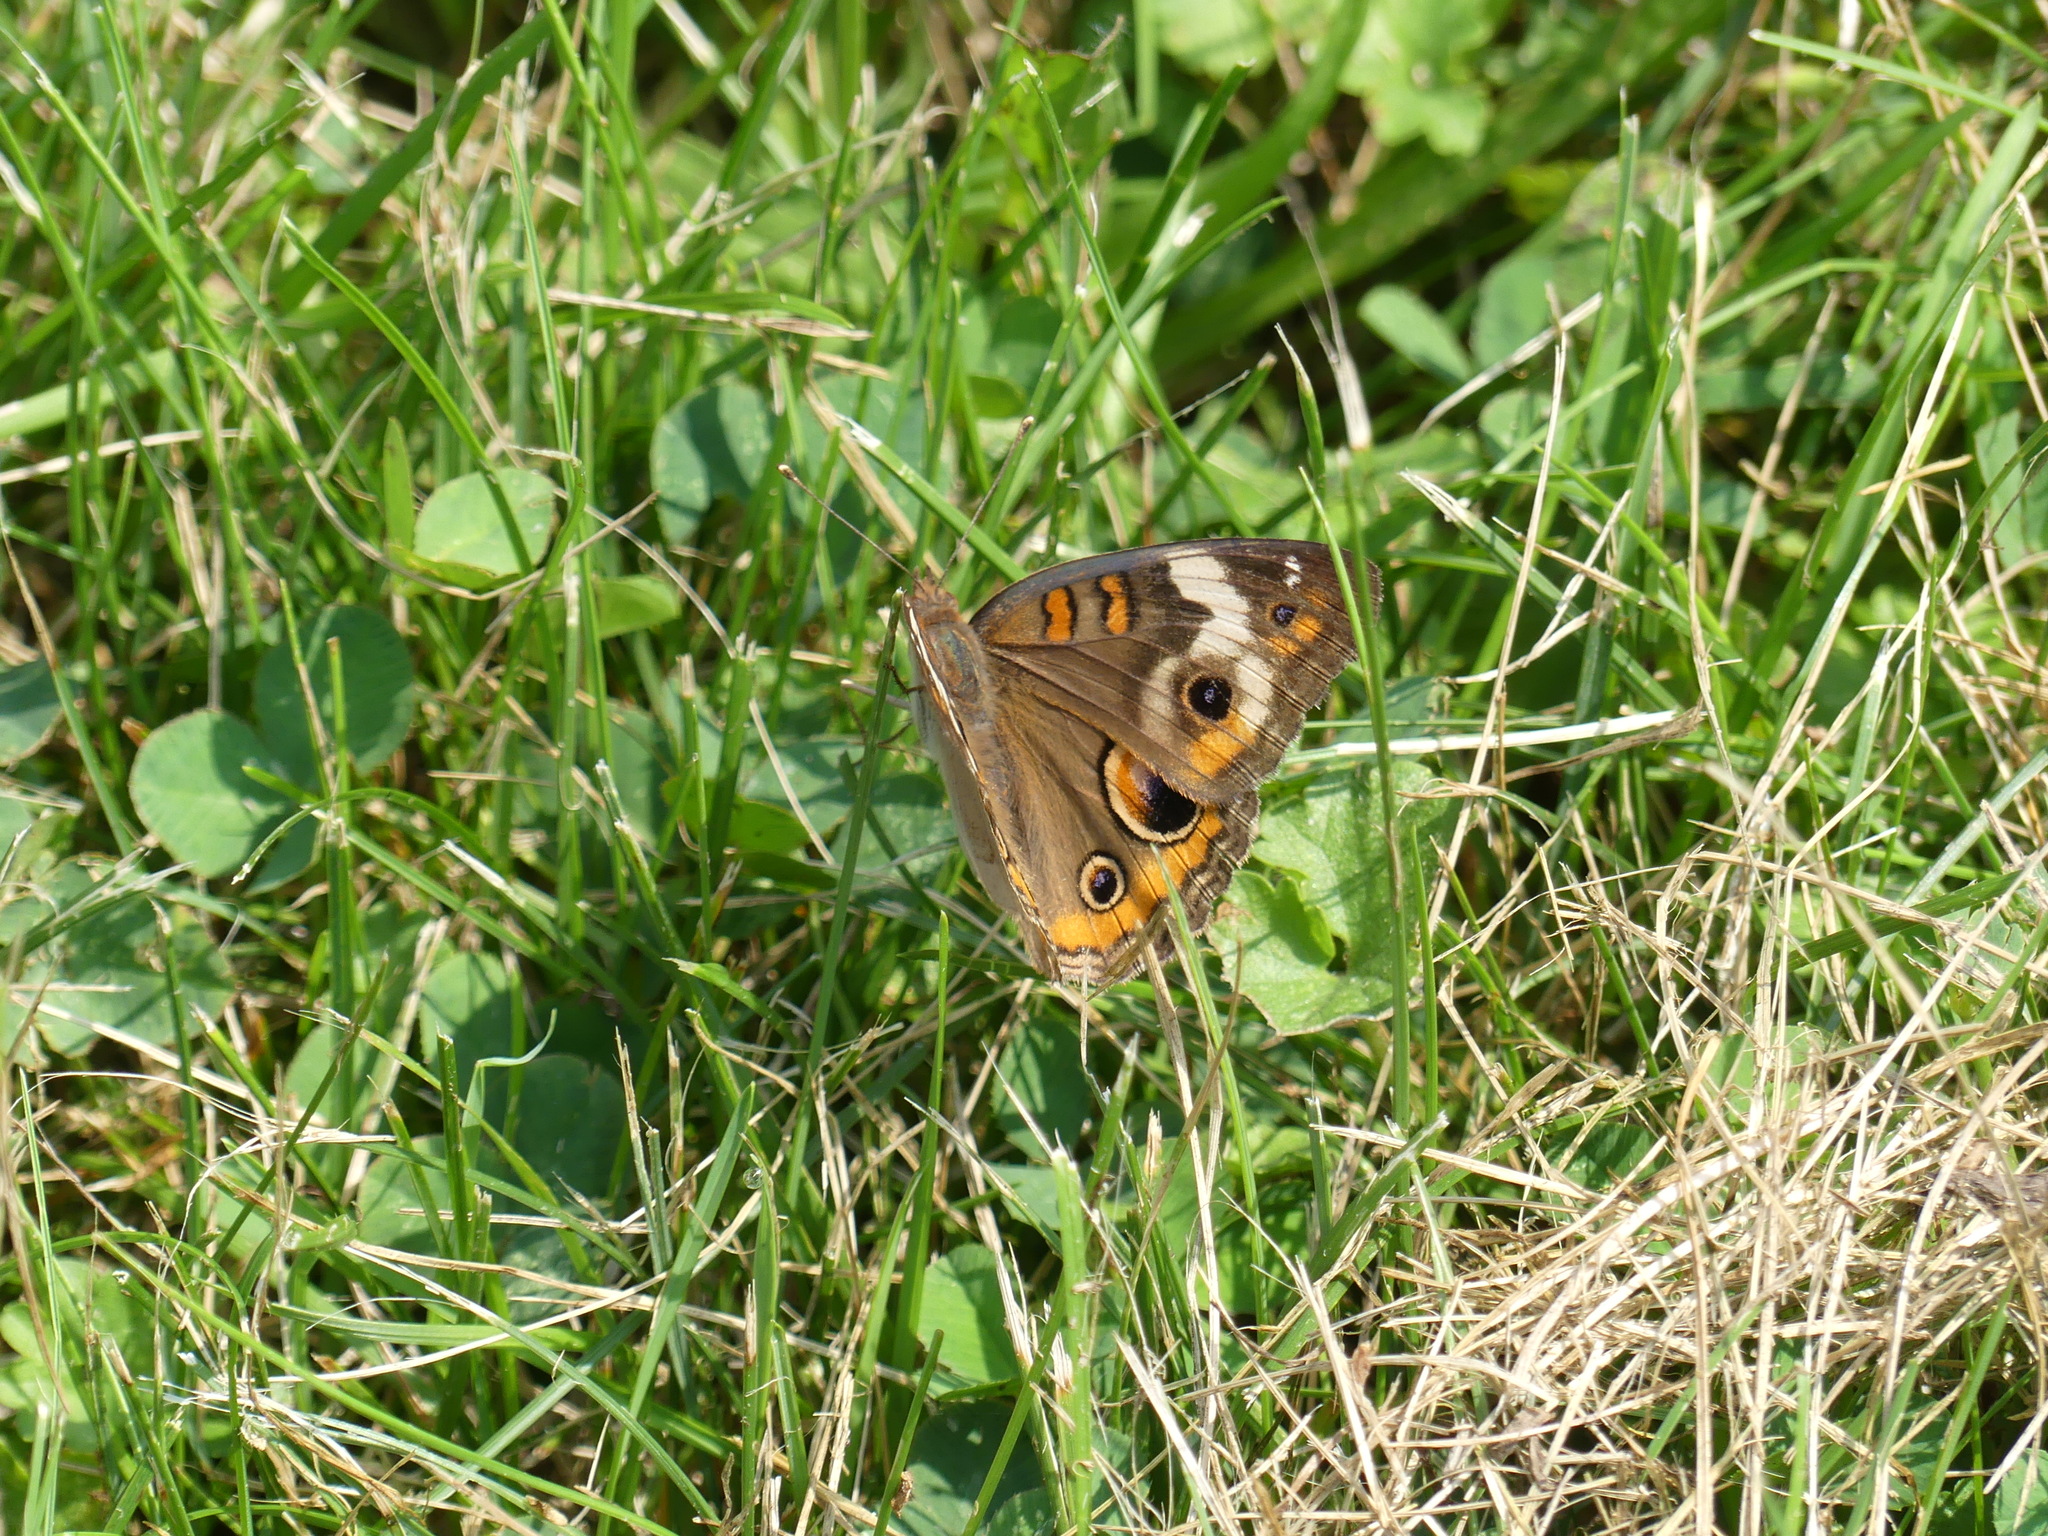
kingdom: Animalia
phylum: Arthropoda
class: Insecta
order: Lepidoptera
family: Nymphalidae
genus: Junonia
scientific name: Junonia coenia
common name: Common buckeye
